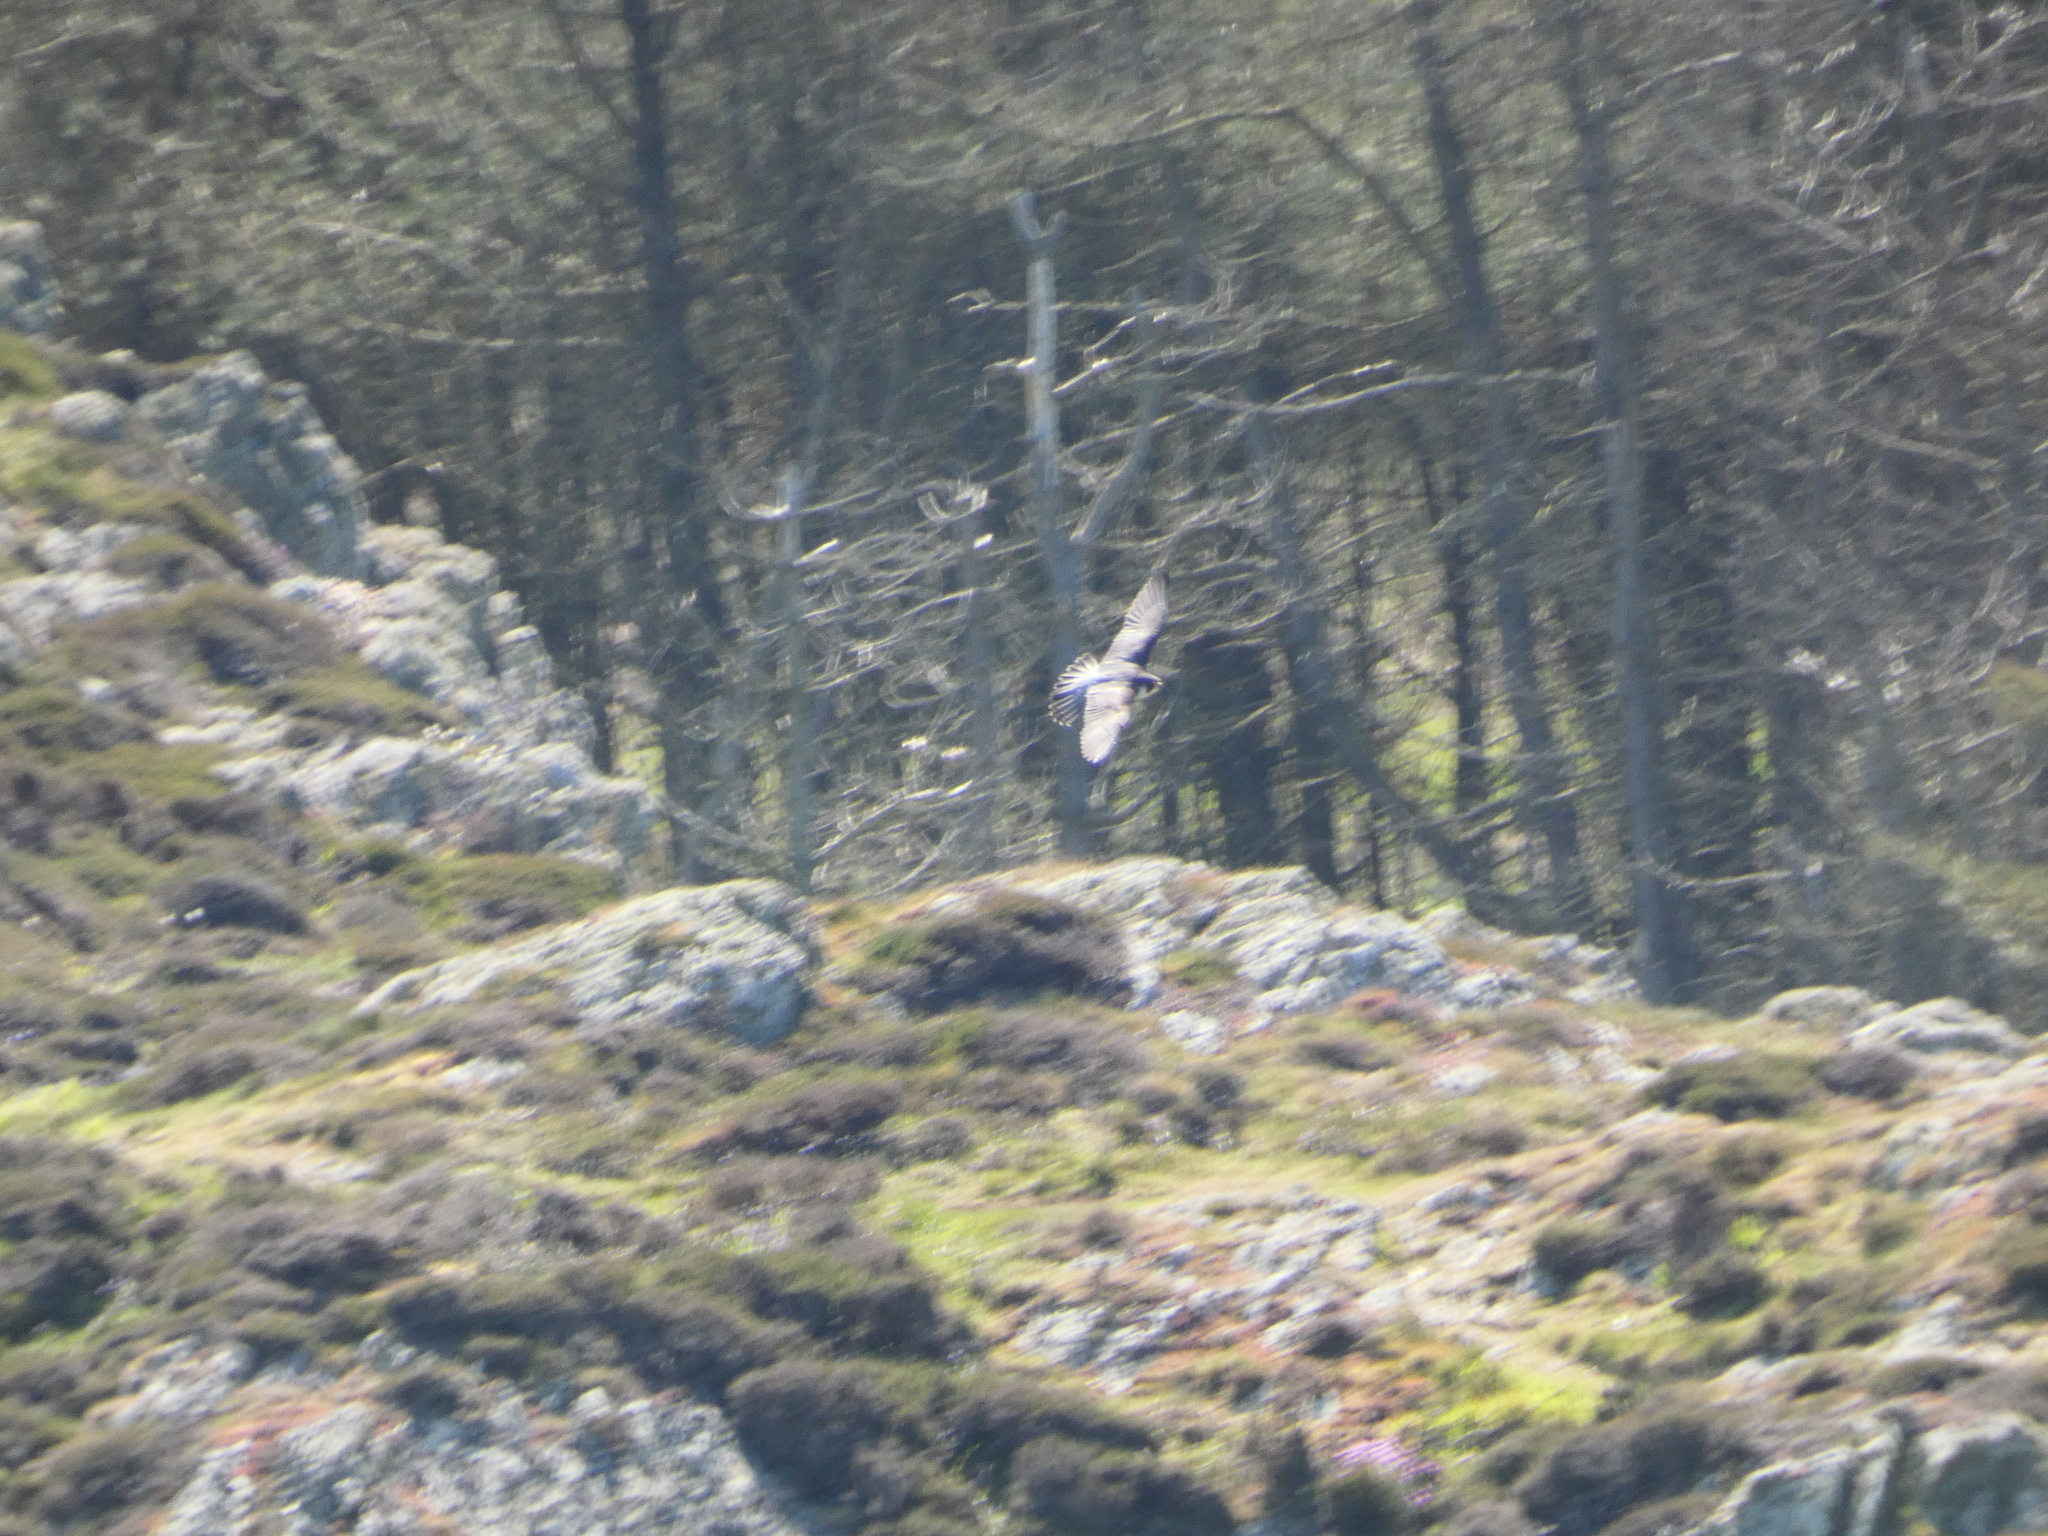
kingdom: Animalia
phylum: Chordata
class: Aves
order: Falconiformes
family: Falconidae
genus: Falco
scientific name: Falco peregrinus
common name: Peregrine falcon
